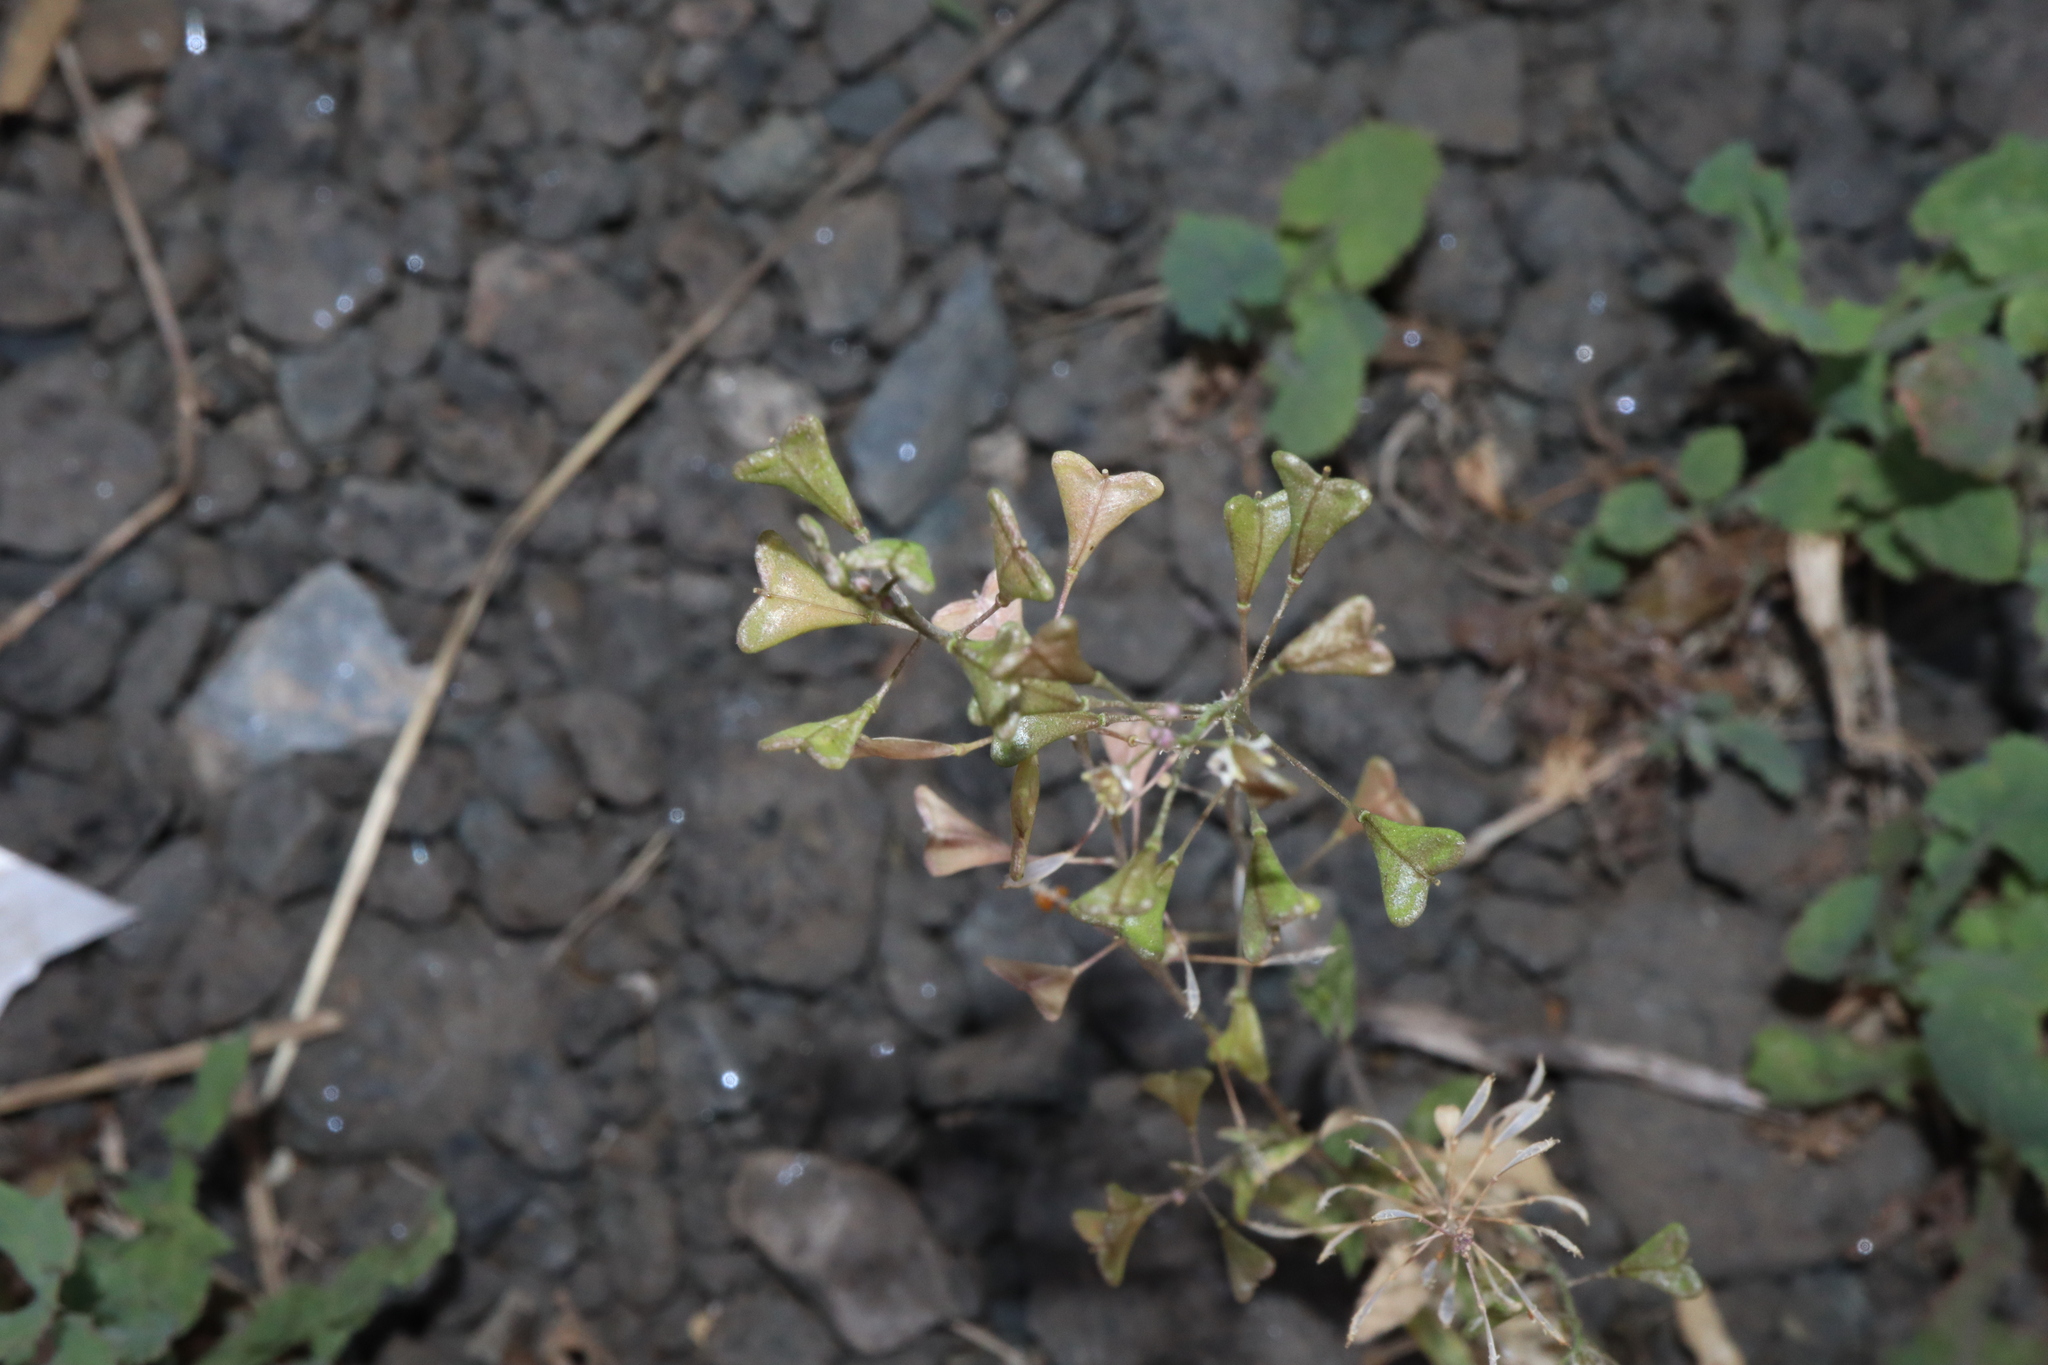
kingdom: Plantae
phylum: Tracheophyta
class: Magnoliopsida
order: Brassicales
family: Brassicaceae
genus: Capsella
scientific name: Capsella bursa-pastoris
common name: Shepherd's purse
